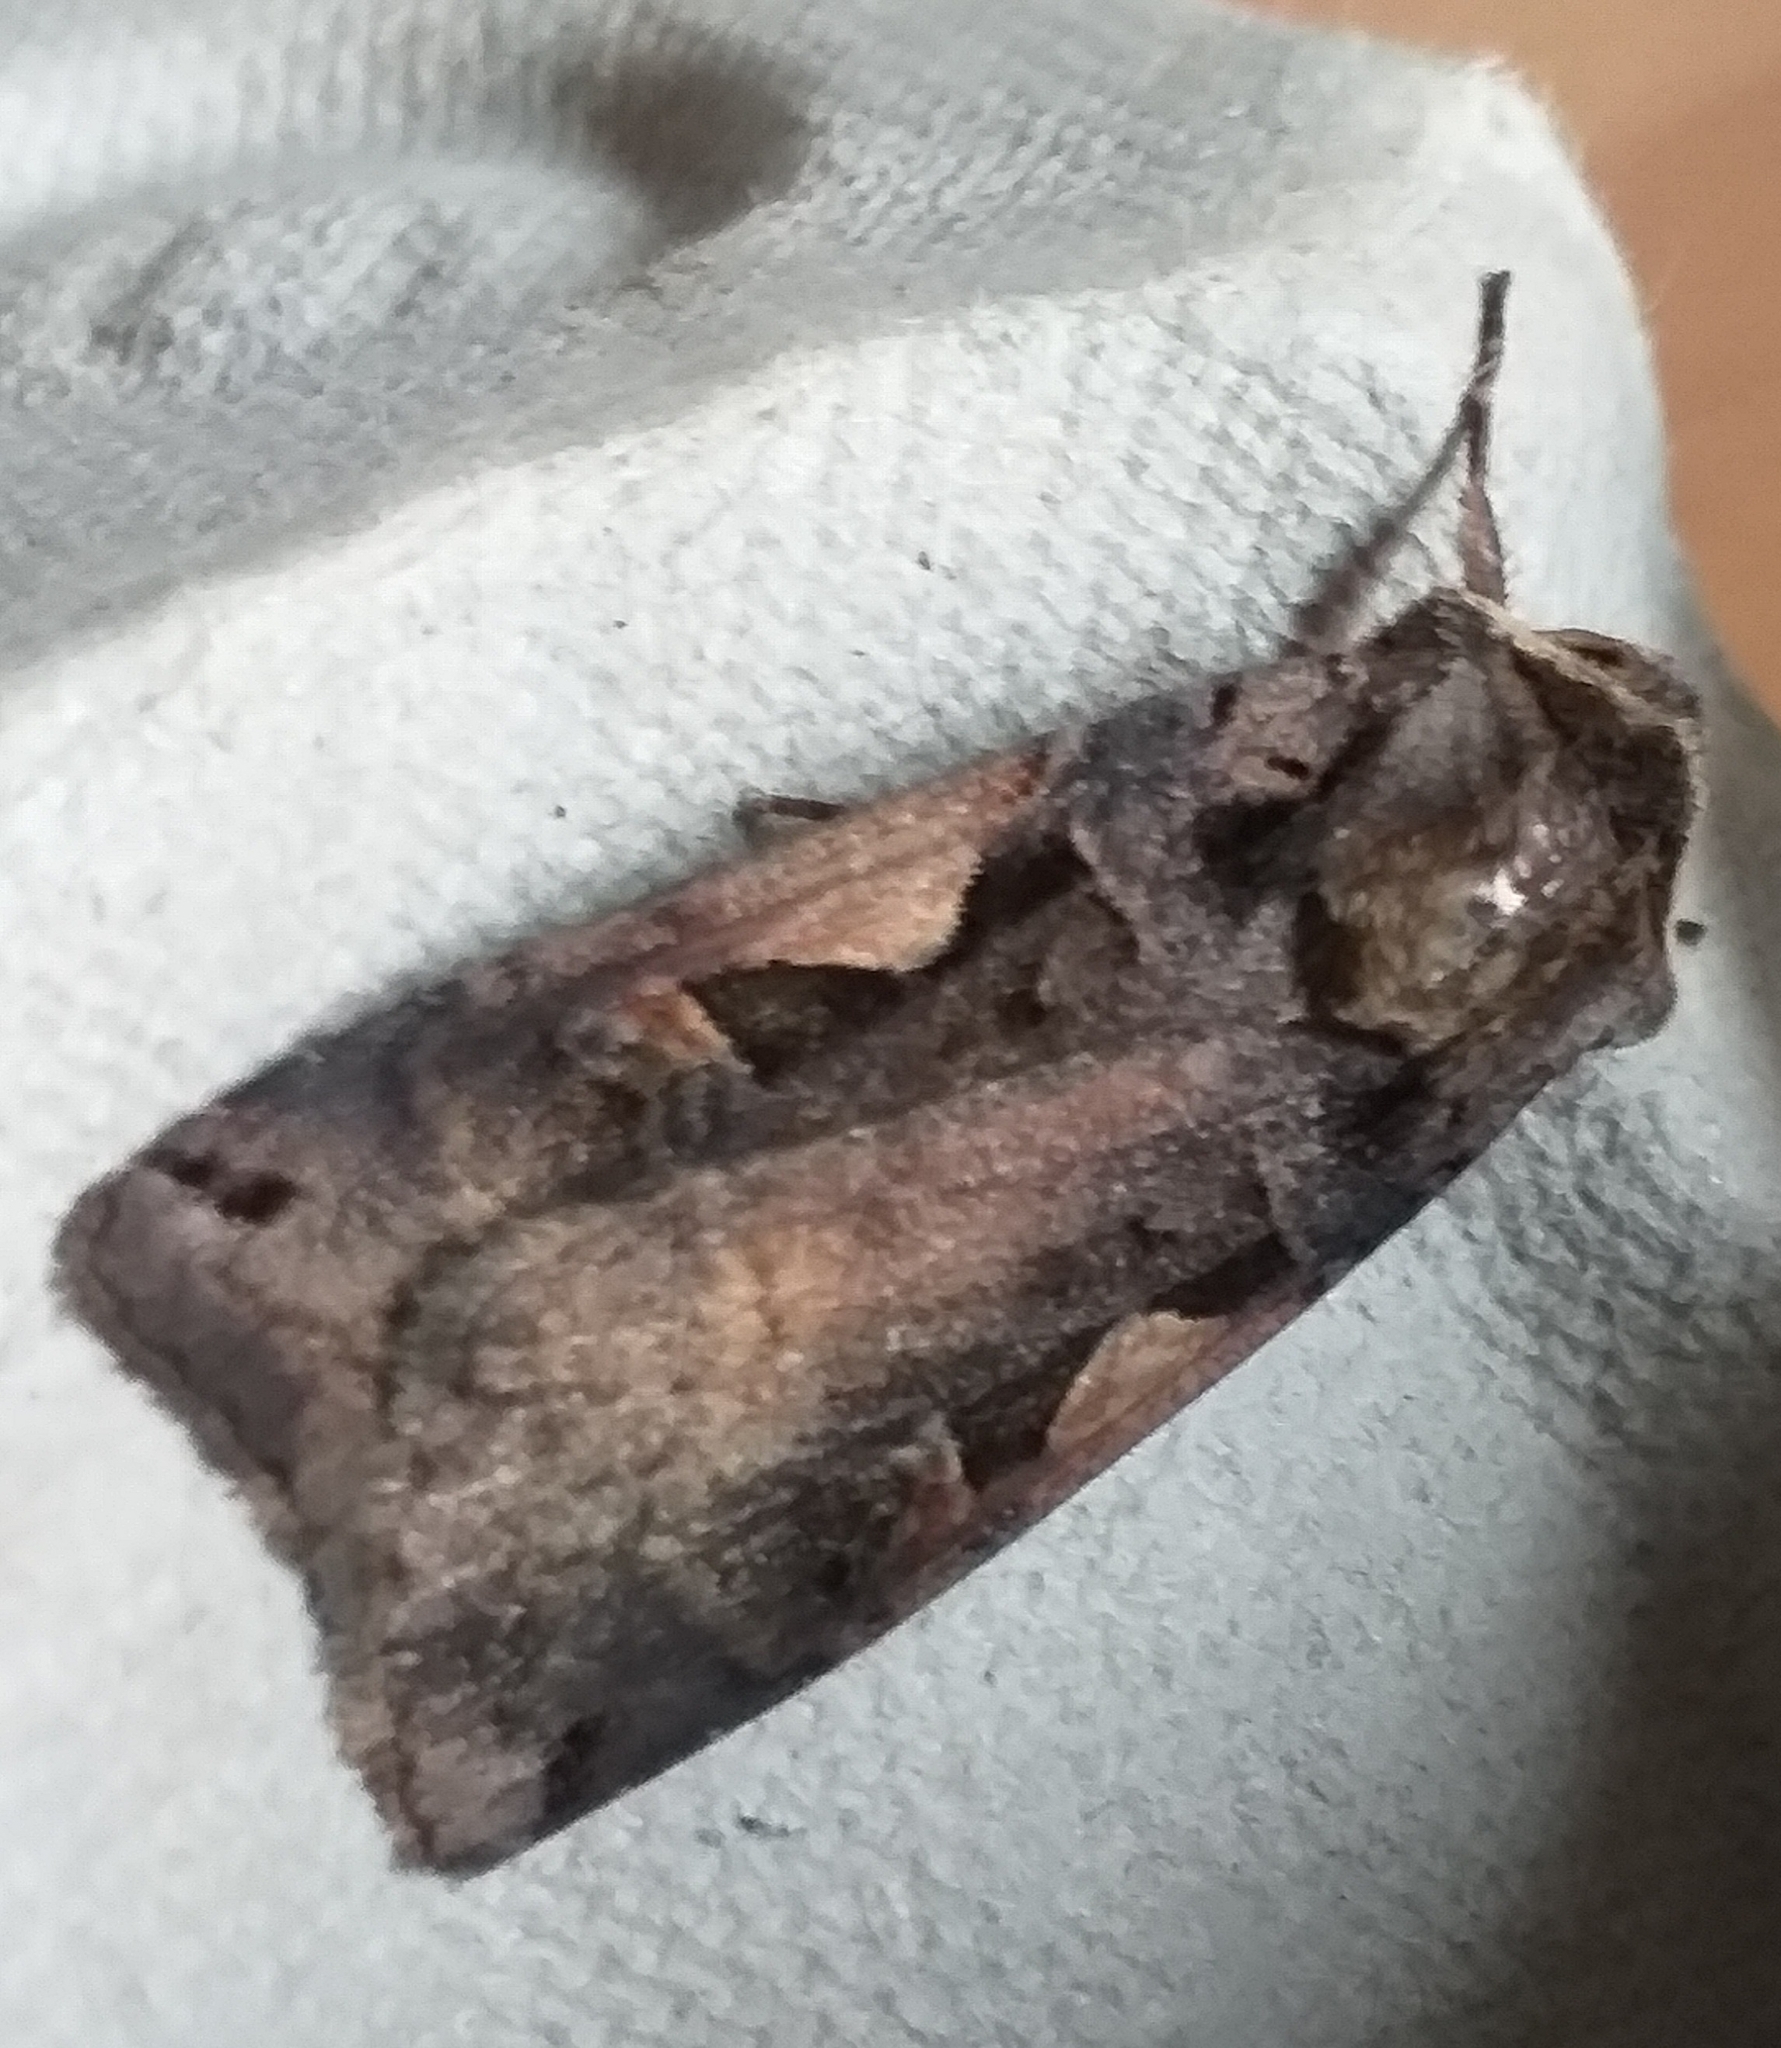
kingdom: Animalia
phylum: Arthropoda
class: Insecta
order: Lepidoptera
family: Noctuidae
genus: Xestia
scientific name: Xestia c-nigrum
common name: Setaceous hebrew character
